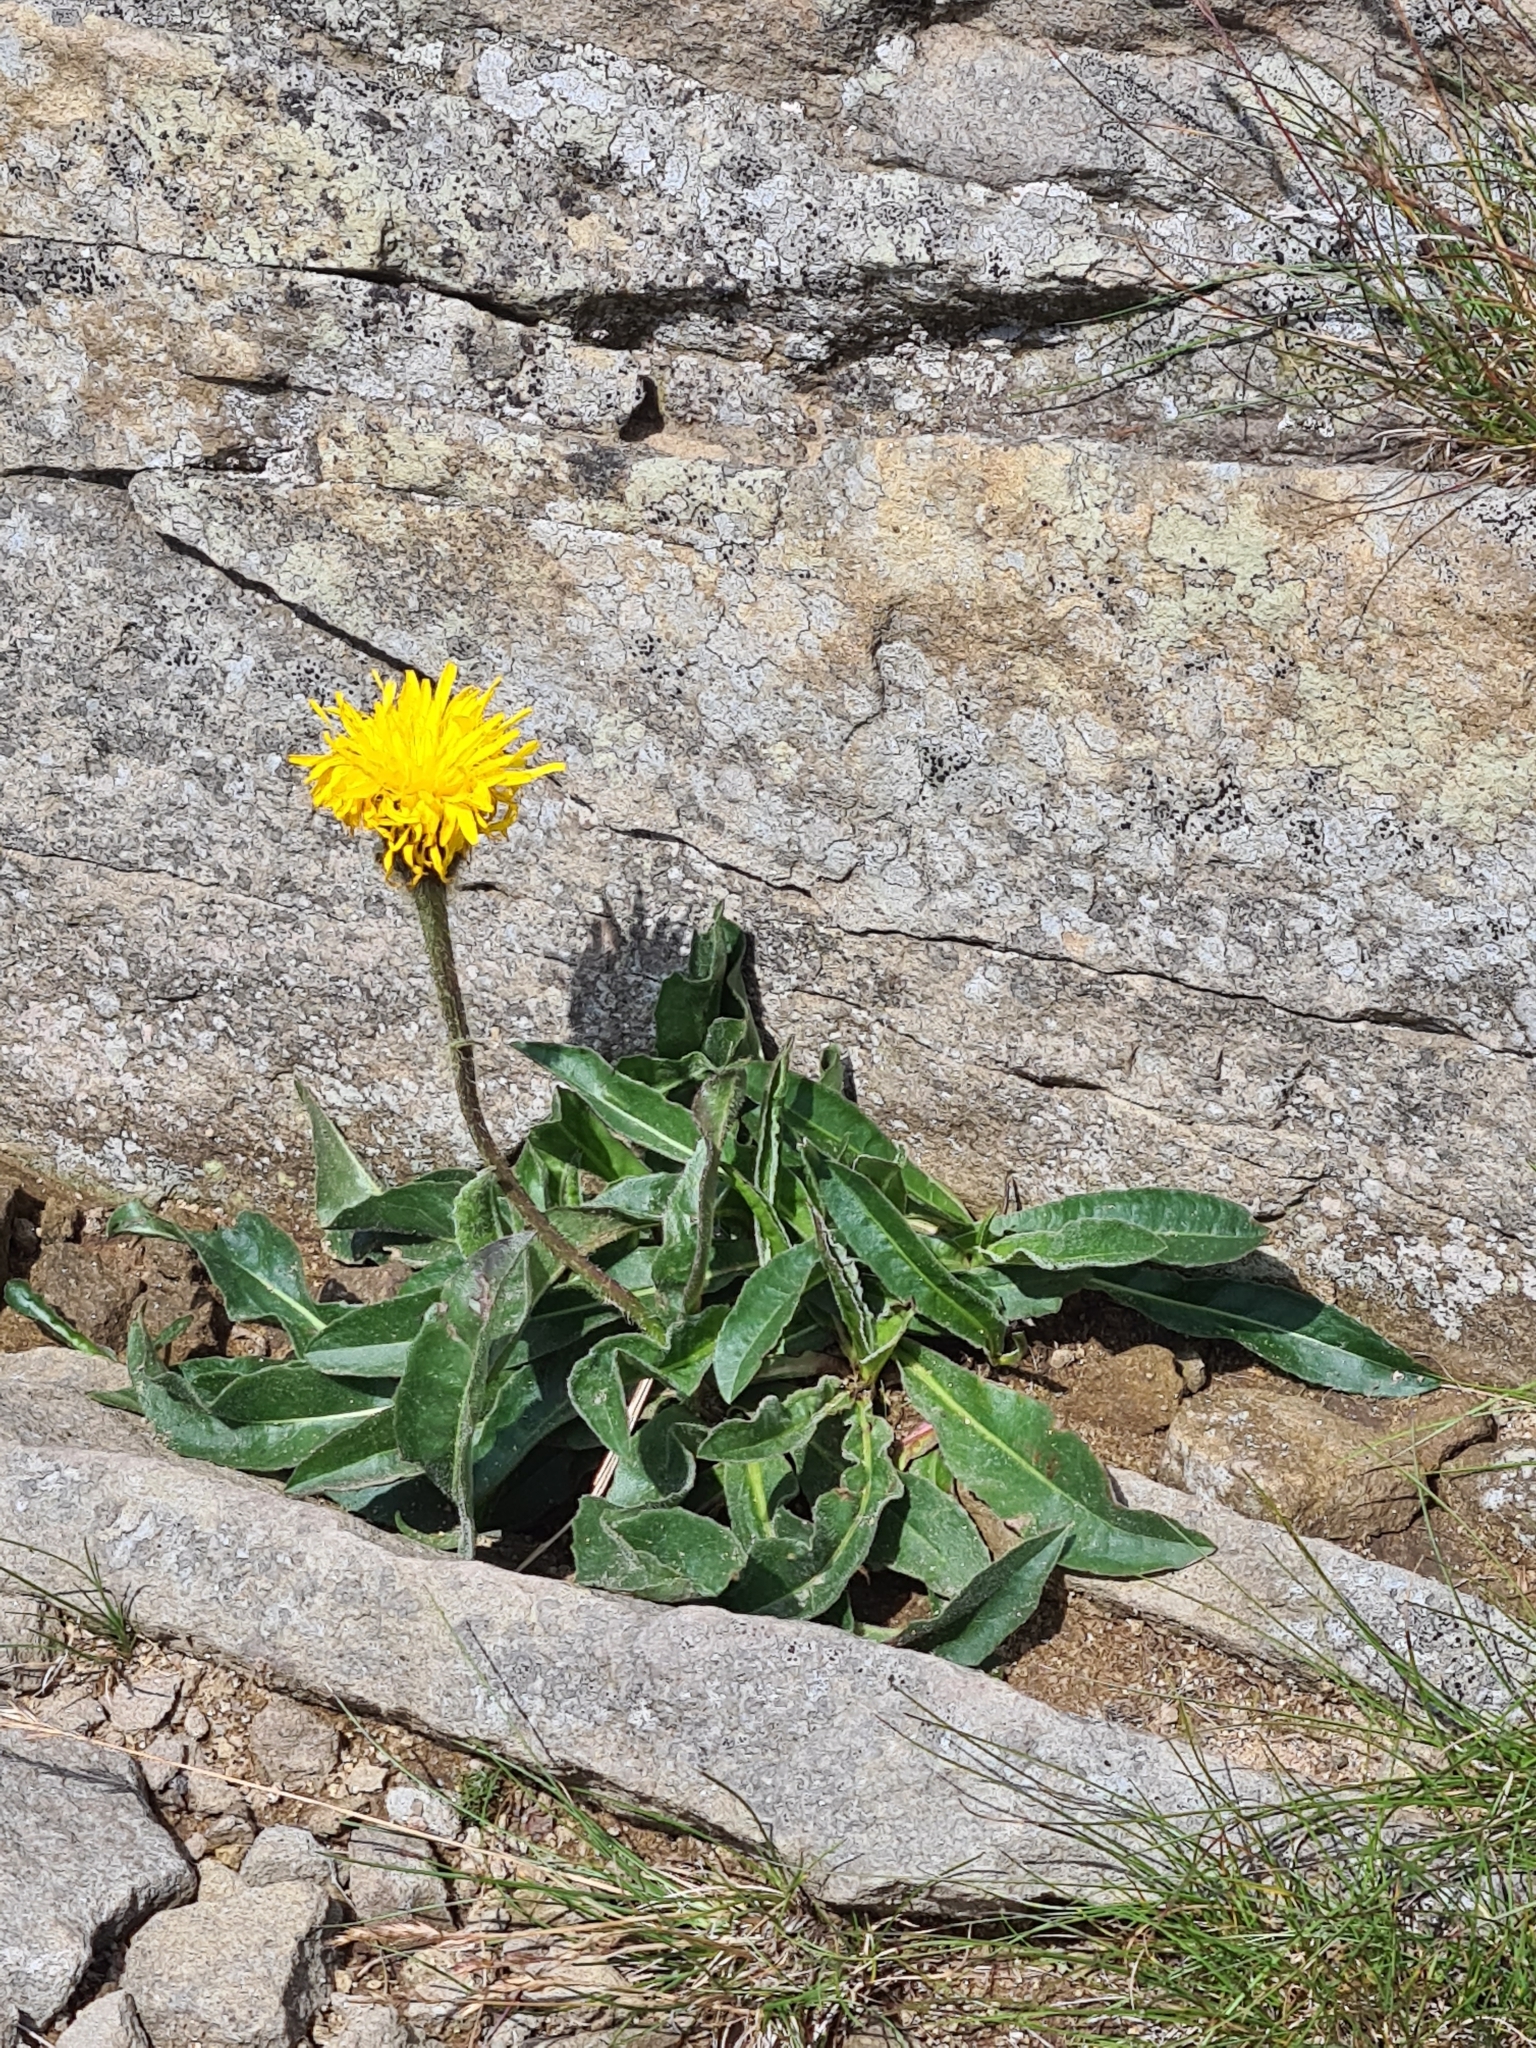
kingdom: Plantae
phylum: Tracheophyta
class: Magnoliopsida
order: Asterales
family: Asteraceae
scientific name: Asteraceae
